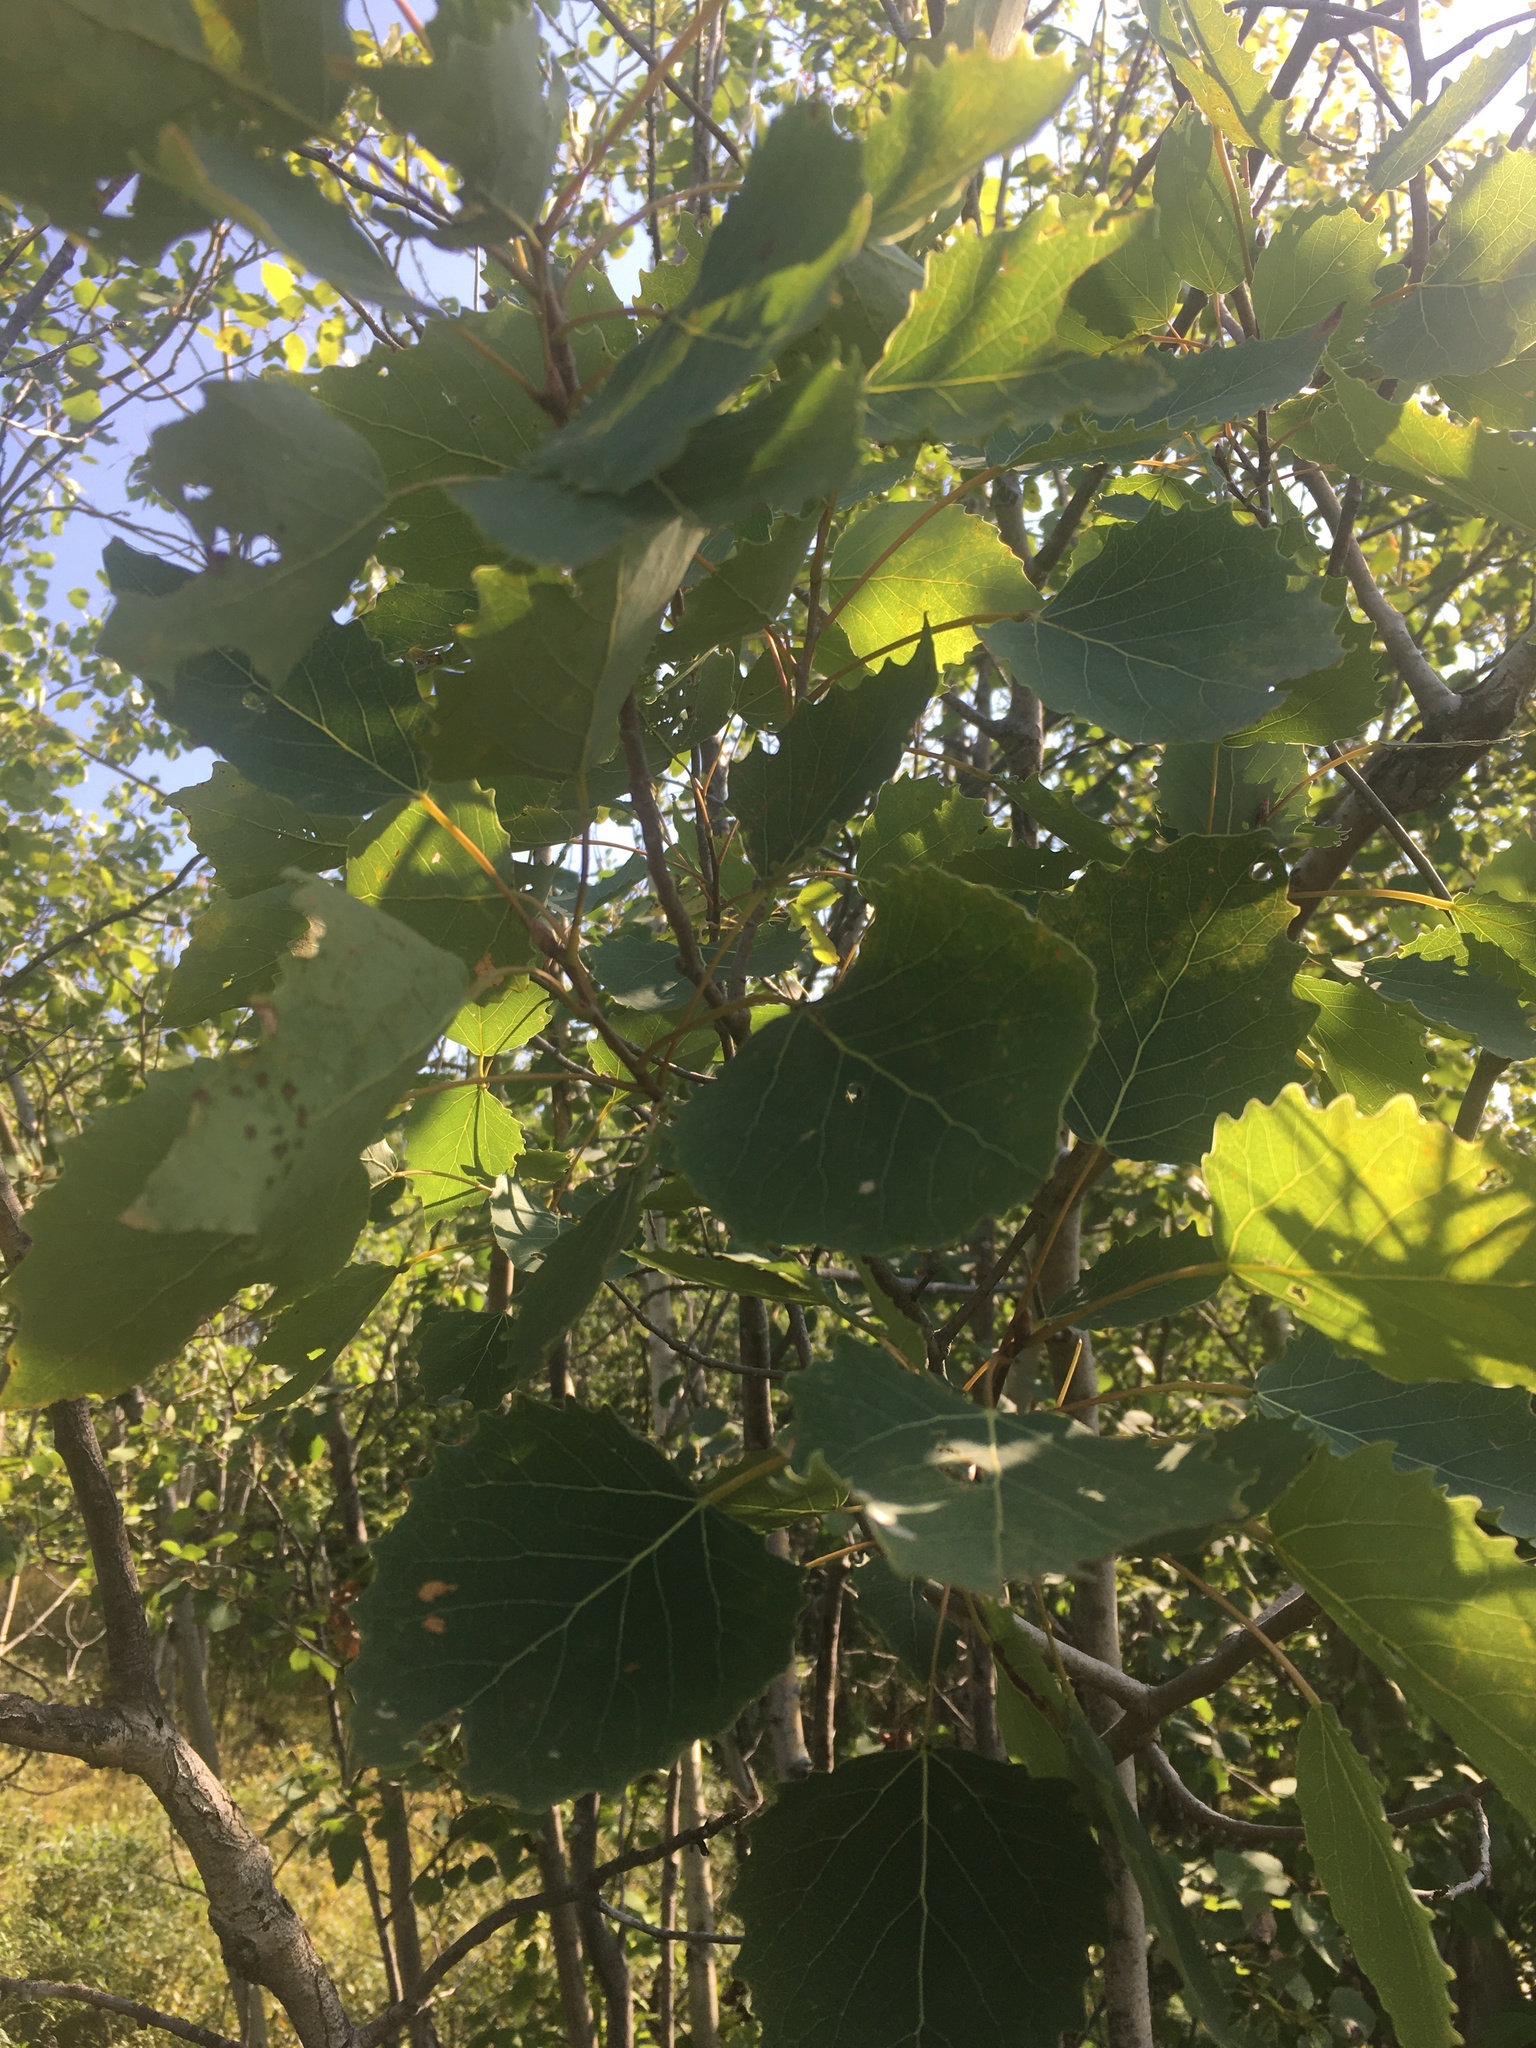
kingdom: Plantae
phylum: Tracheophyta
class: Magnoliopsida
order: Malpighiales
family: Salicaceae
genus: Populus
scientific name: Populus grandidentata
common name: Bigtooth aspen
